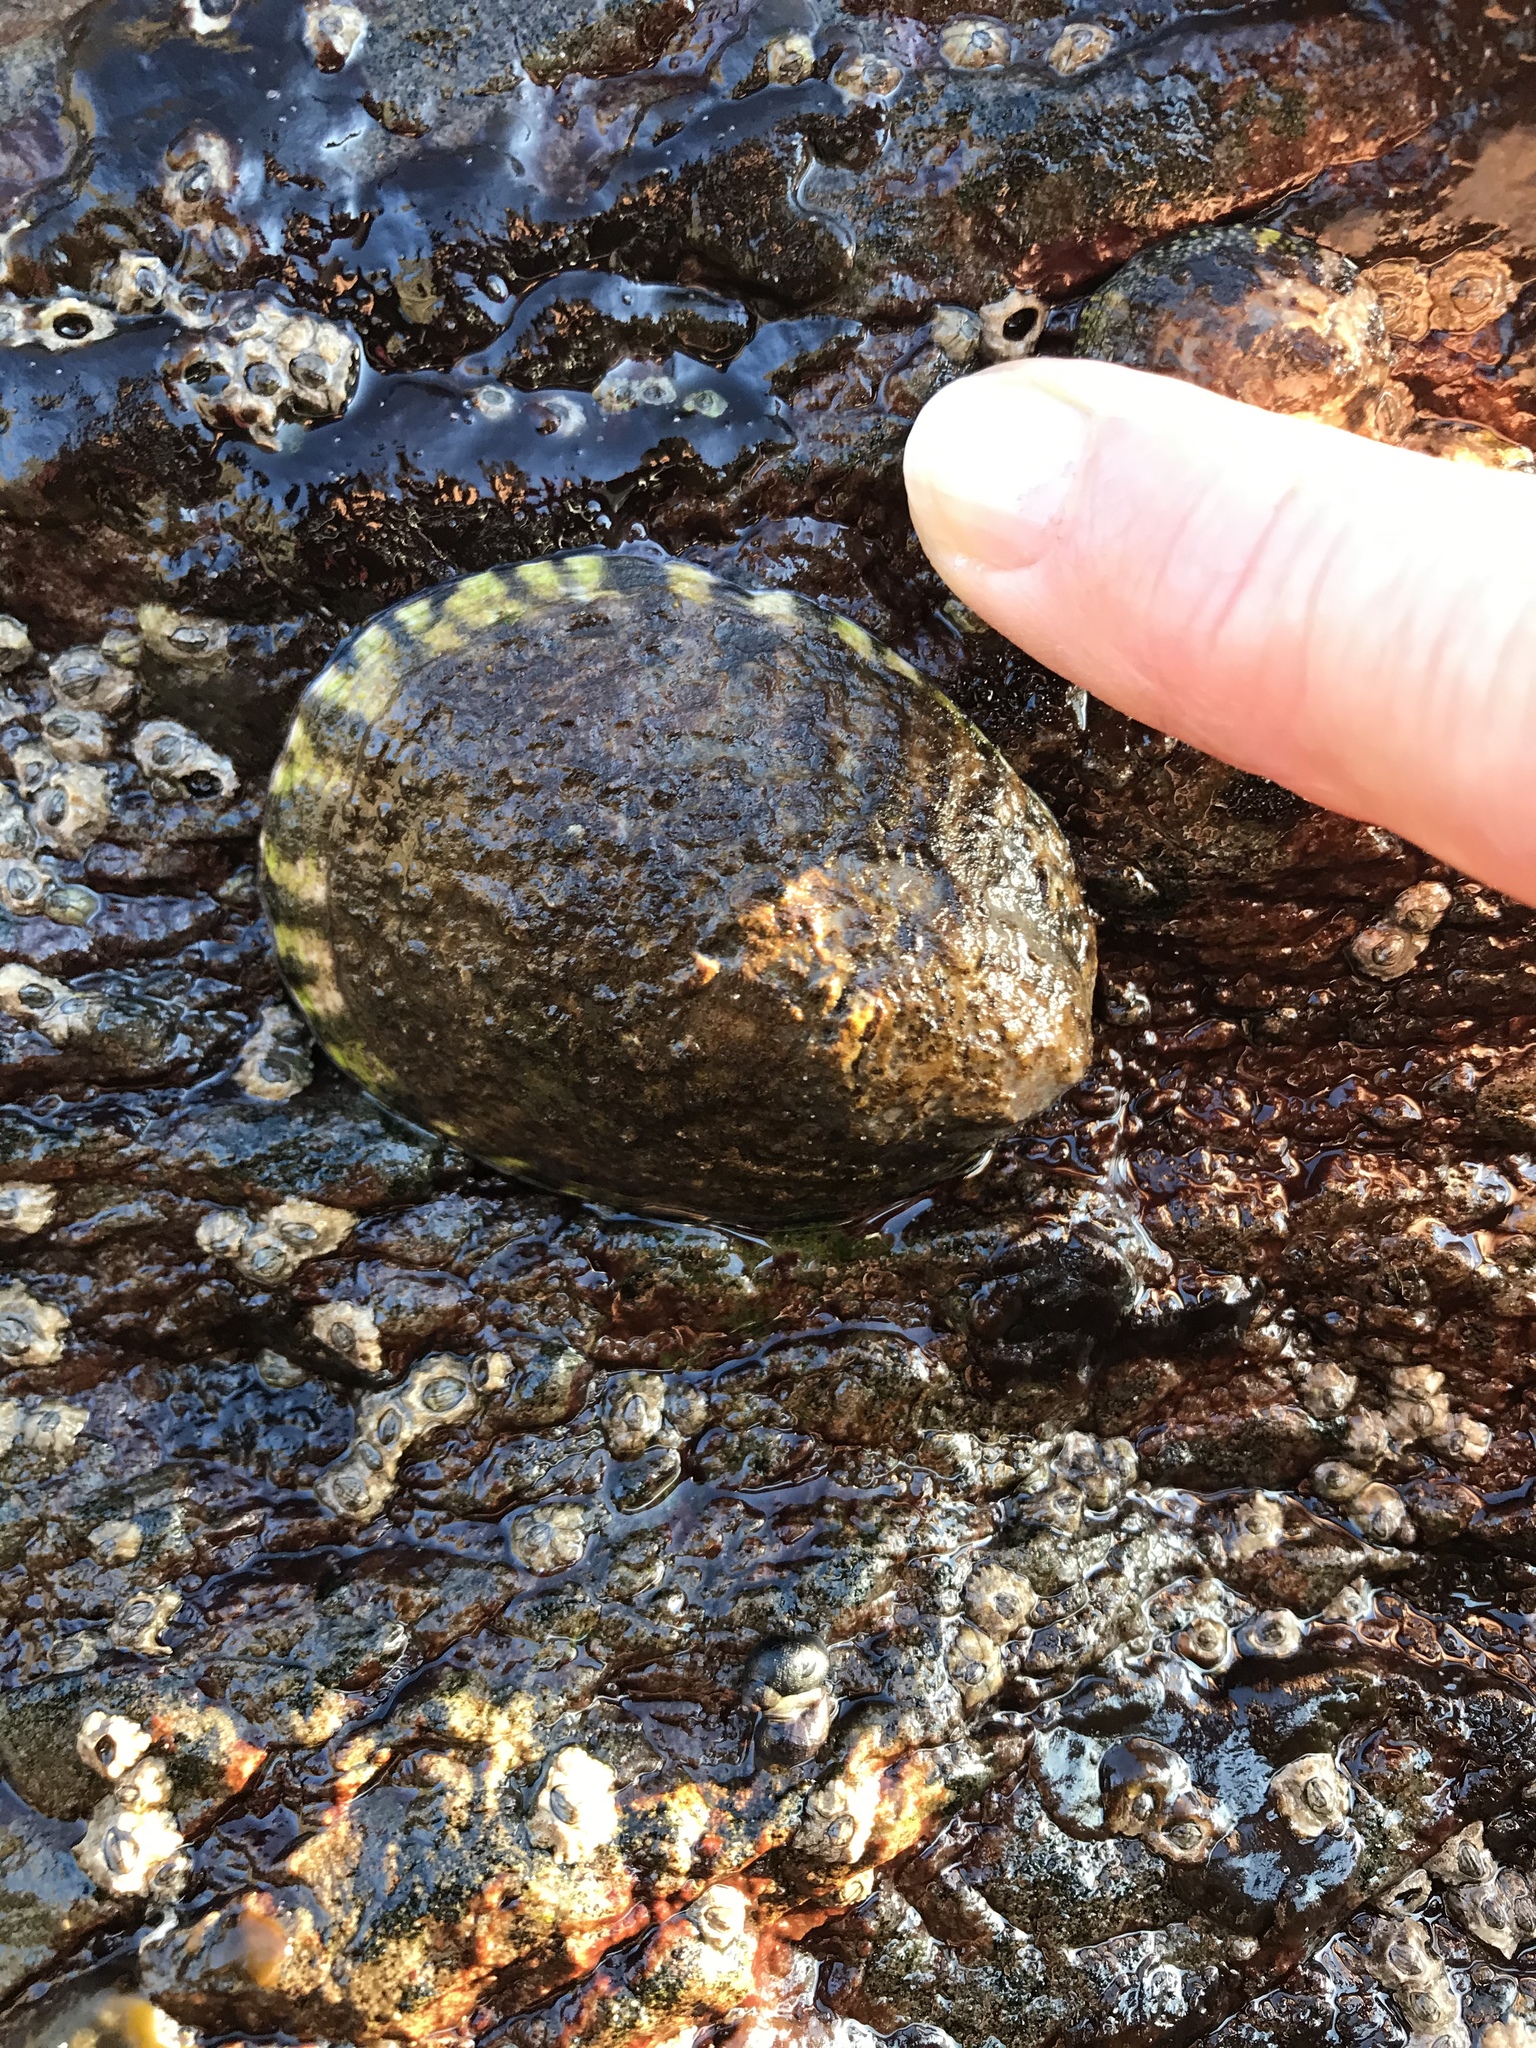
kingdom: Animalia
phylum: Mollusca
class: Gastropoda
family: Lottiidae
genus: Lottia
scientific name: Lottia gigantea
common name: Owl limpet
